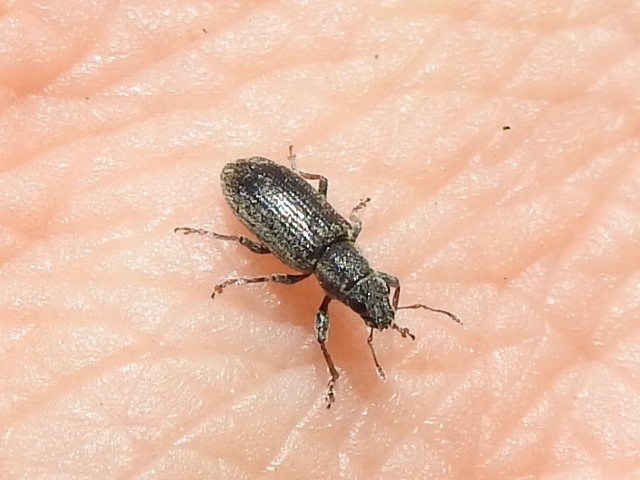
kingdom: Animalia
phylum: Arthropoda
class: Insecta
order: Coleoptera
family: Curculionidae
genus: Sitona
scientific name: Sitona lineatus
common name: Weevil
